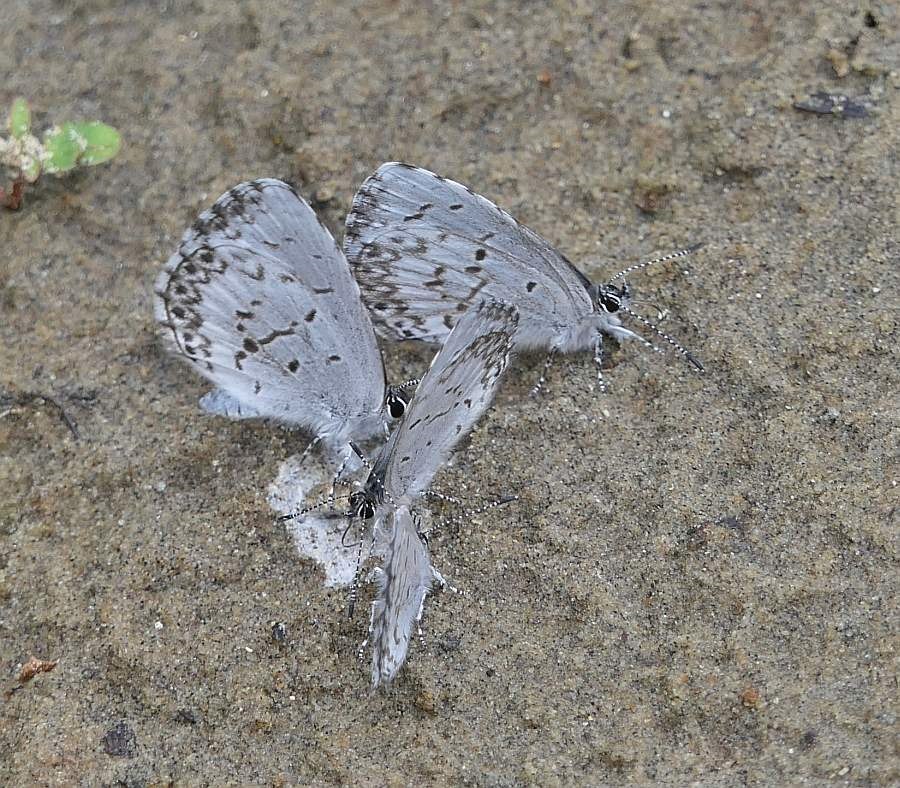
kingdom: Animalia
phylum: Arthropoda
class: Insecta
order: Lepidoptera
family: Lycaenidae
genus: Celastrina
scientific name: Celastrina lucia
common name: Lucia azure
